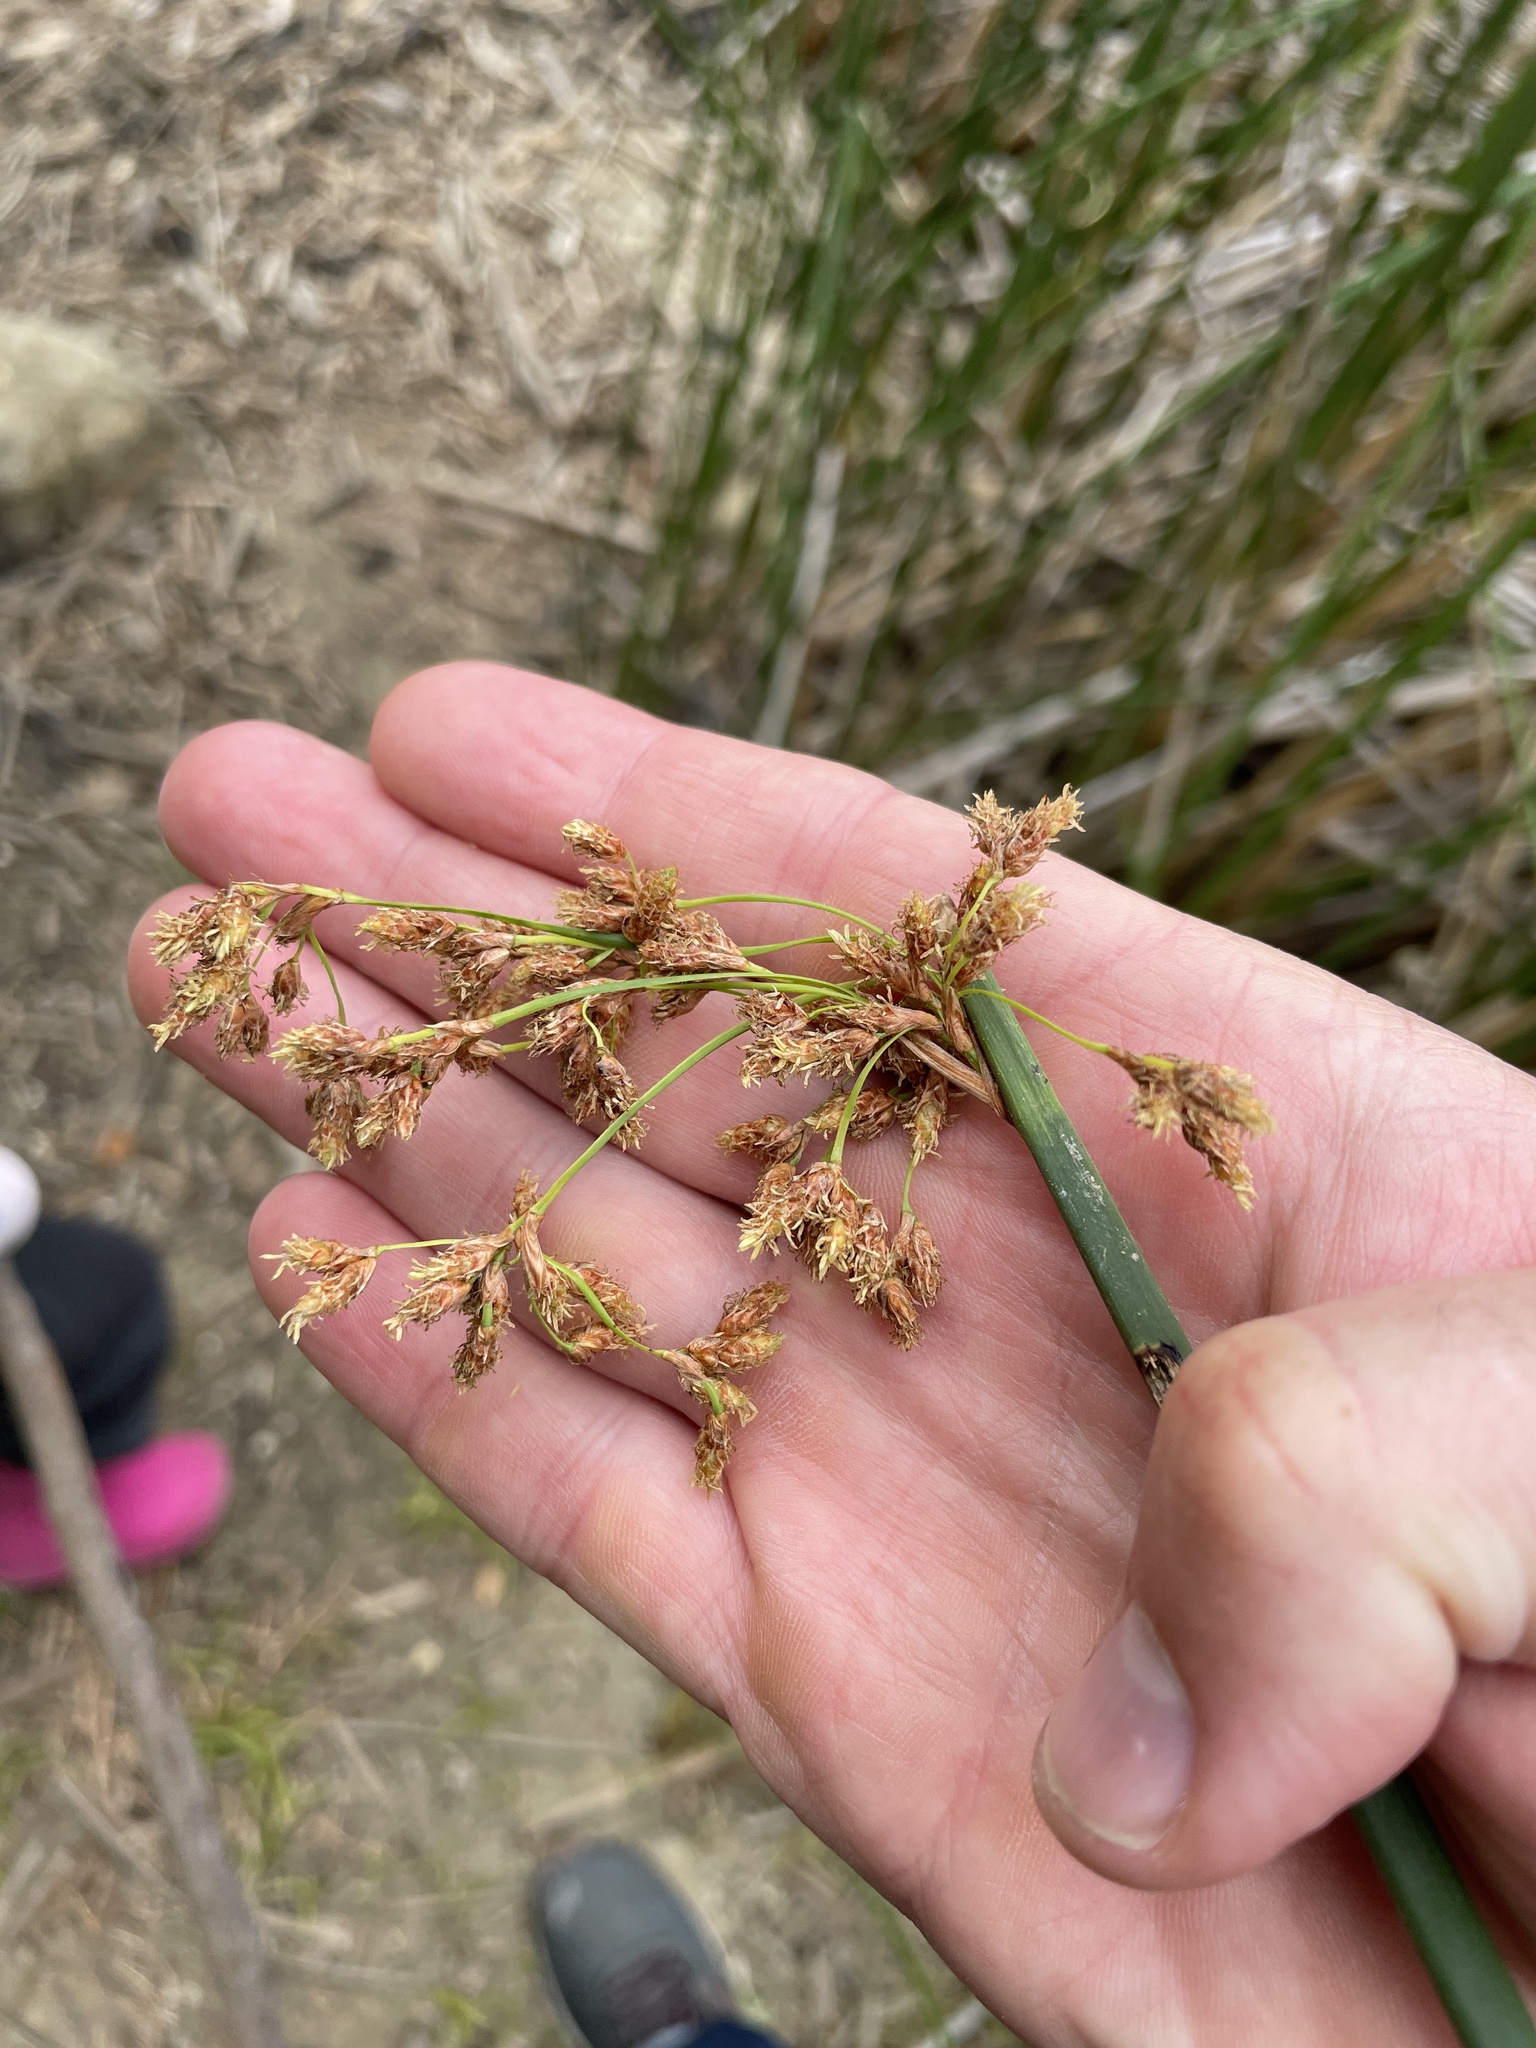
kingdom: Plantae
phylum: Tracheophyta
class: Liliopsida
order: Poales
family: Cyperaceae
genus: Schoenoplectus
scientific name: Schoenoplectus californicus
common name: California bulrush
